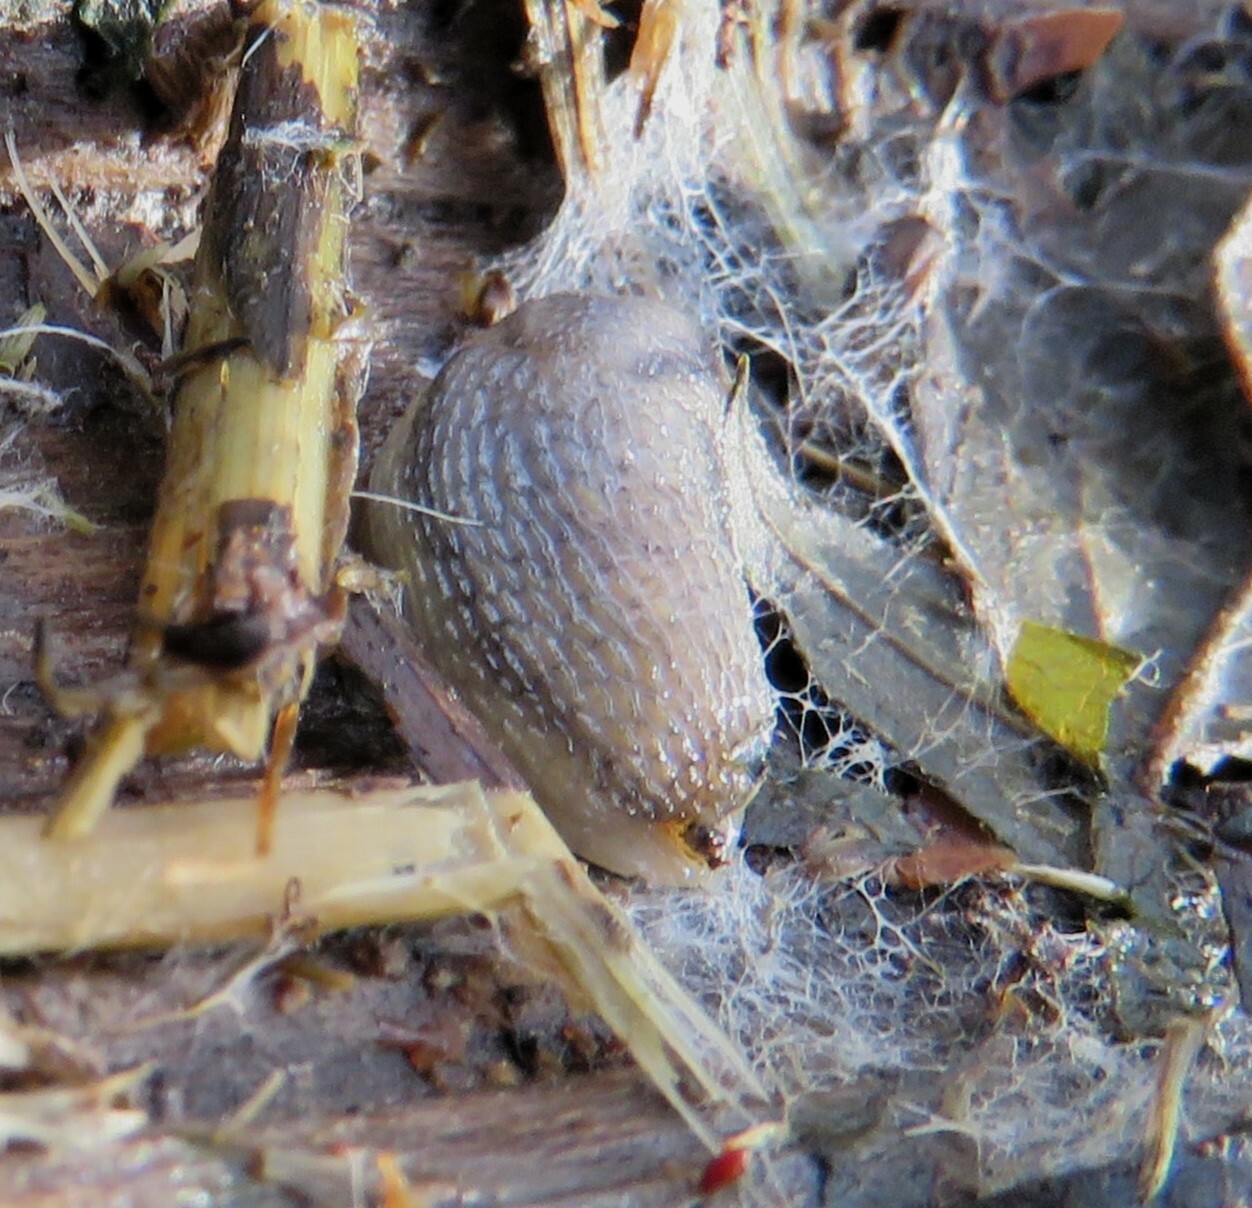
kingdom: Animalia
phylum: Mollusca
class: Gastropoda
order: Stylommatophora
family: Arionidae
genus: Arion
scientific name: Arion fasciatus
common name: Orange-banded arion
